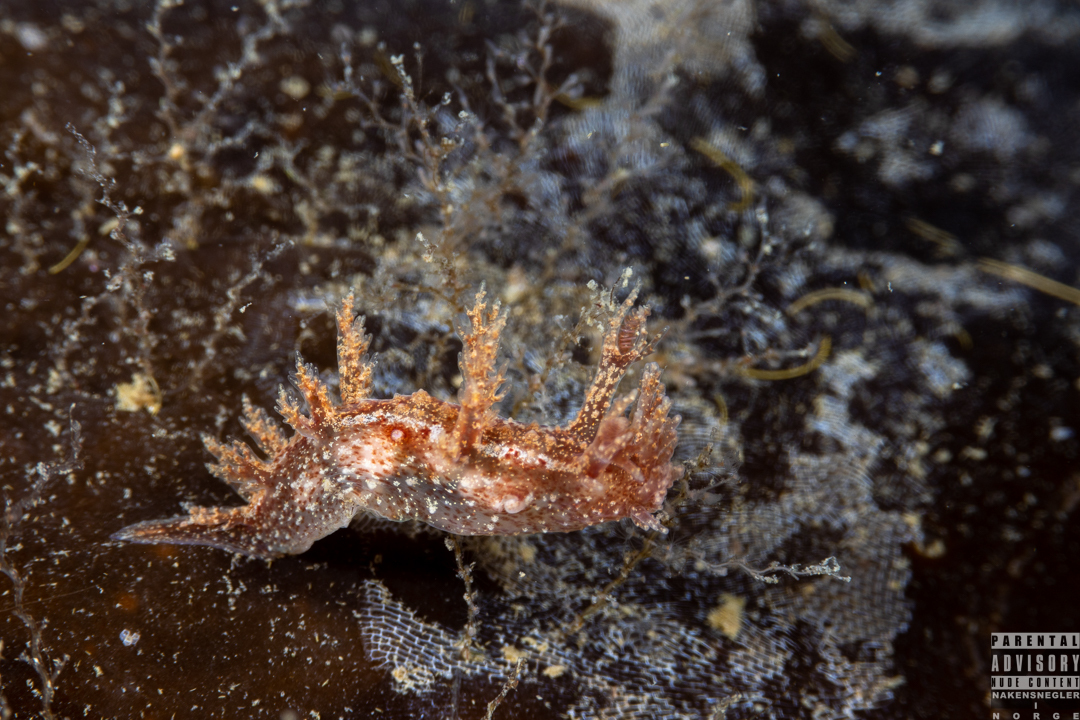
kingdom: Animalia
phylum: Mollusca
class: Gastropoda
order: Nudibranchia
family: Dendronotidae
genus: Dendronotus
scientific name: Dendronotus frondosus
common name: Bushy-backed nudibranch
